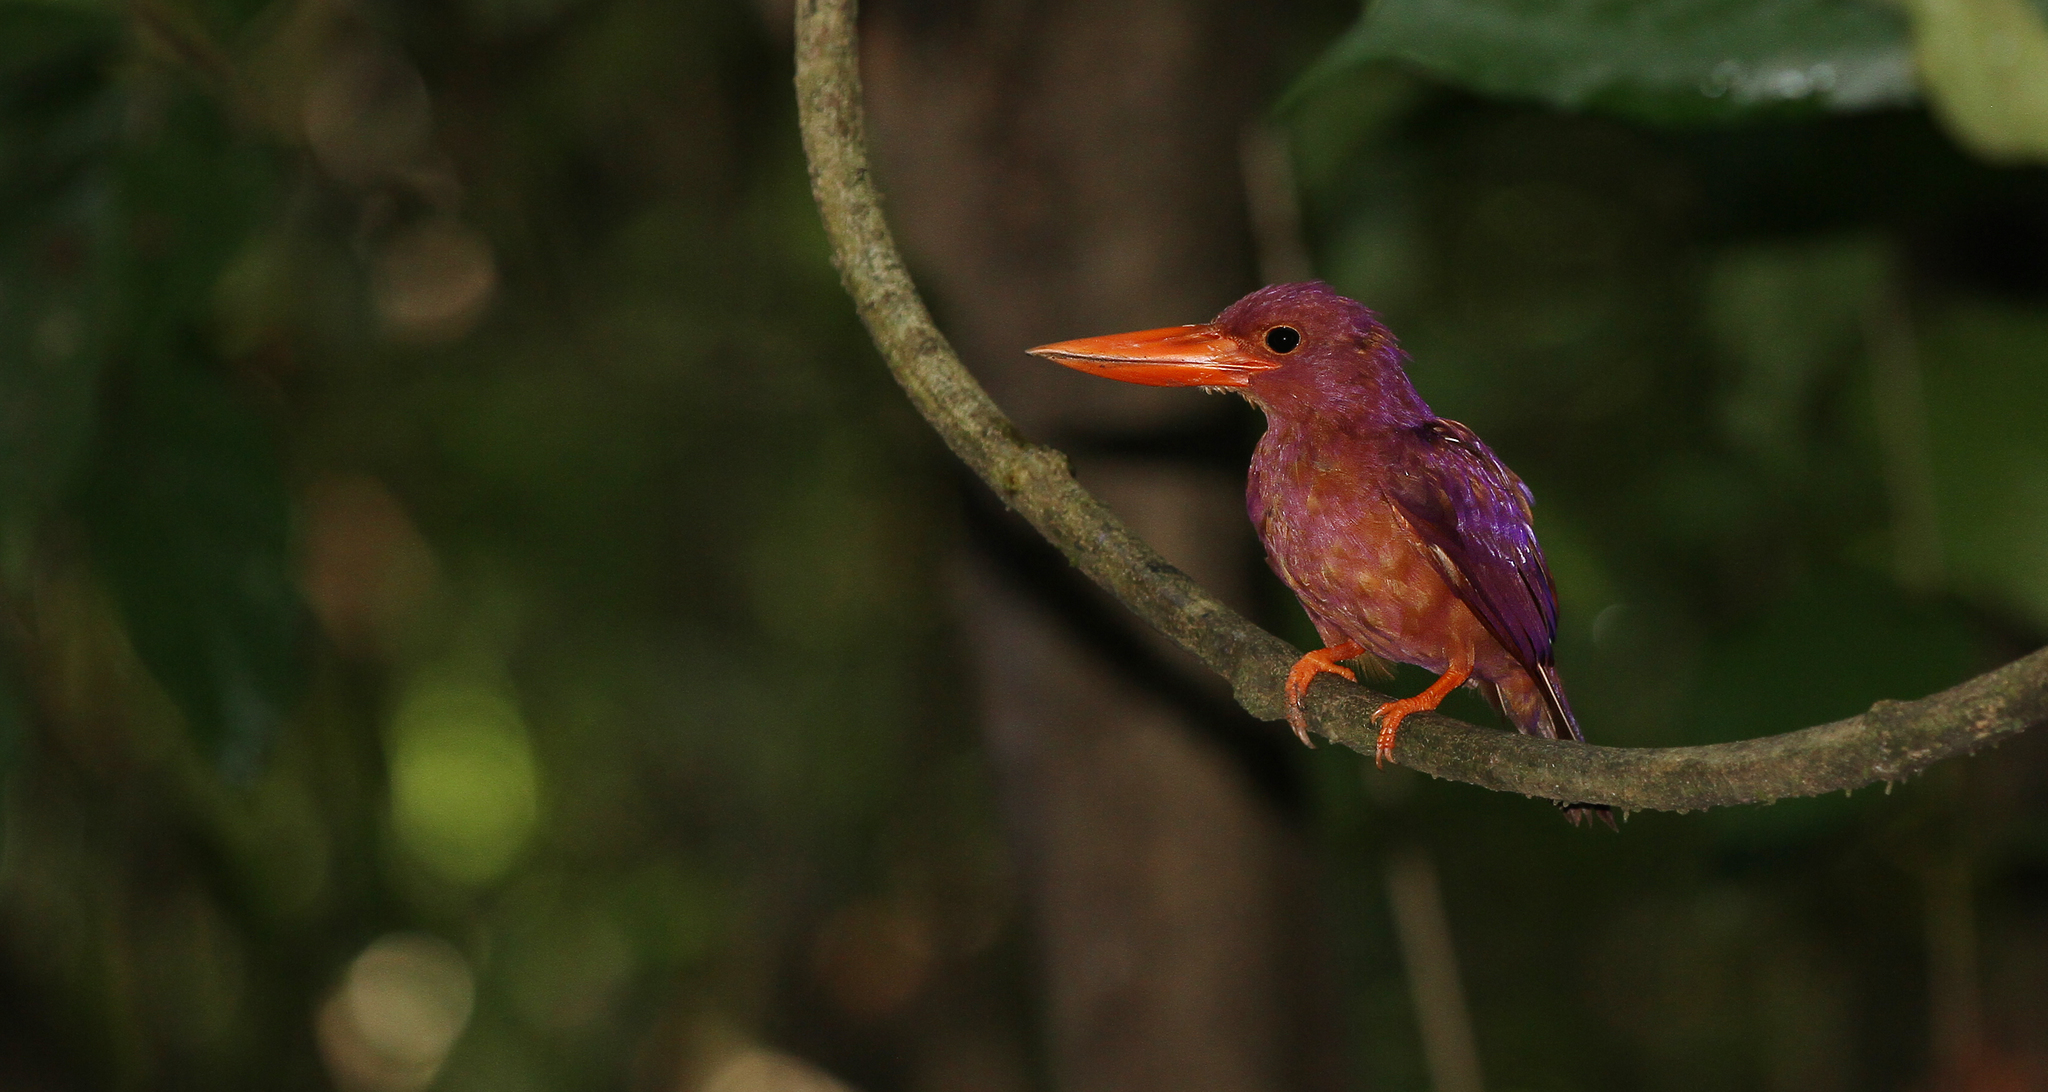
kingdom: Animalia
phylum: Chordata
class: Aves
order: Coraciiformes
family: Alcedinidae
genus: Halcyon
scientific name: Halcyon coromanda
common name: Ruddy kingfisher
